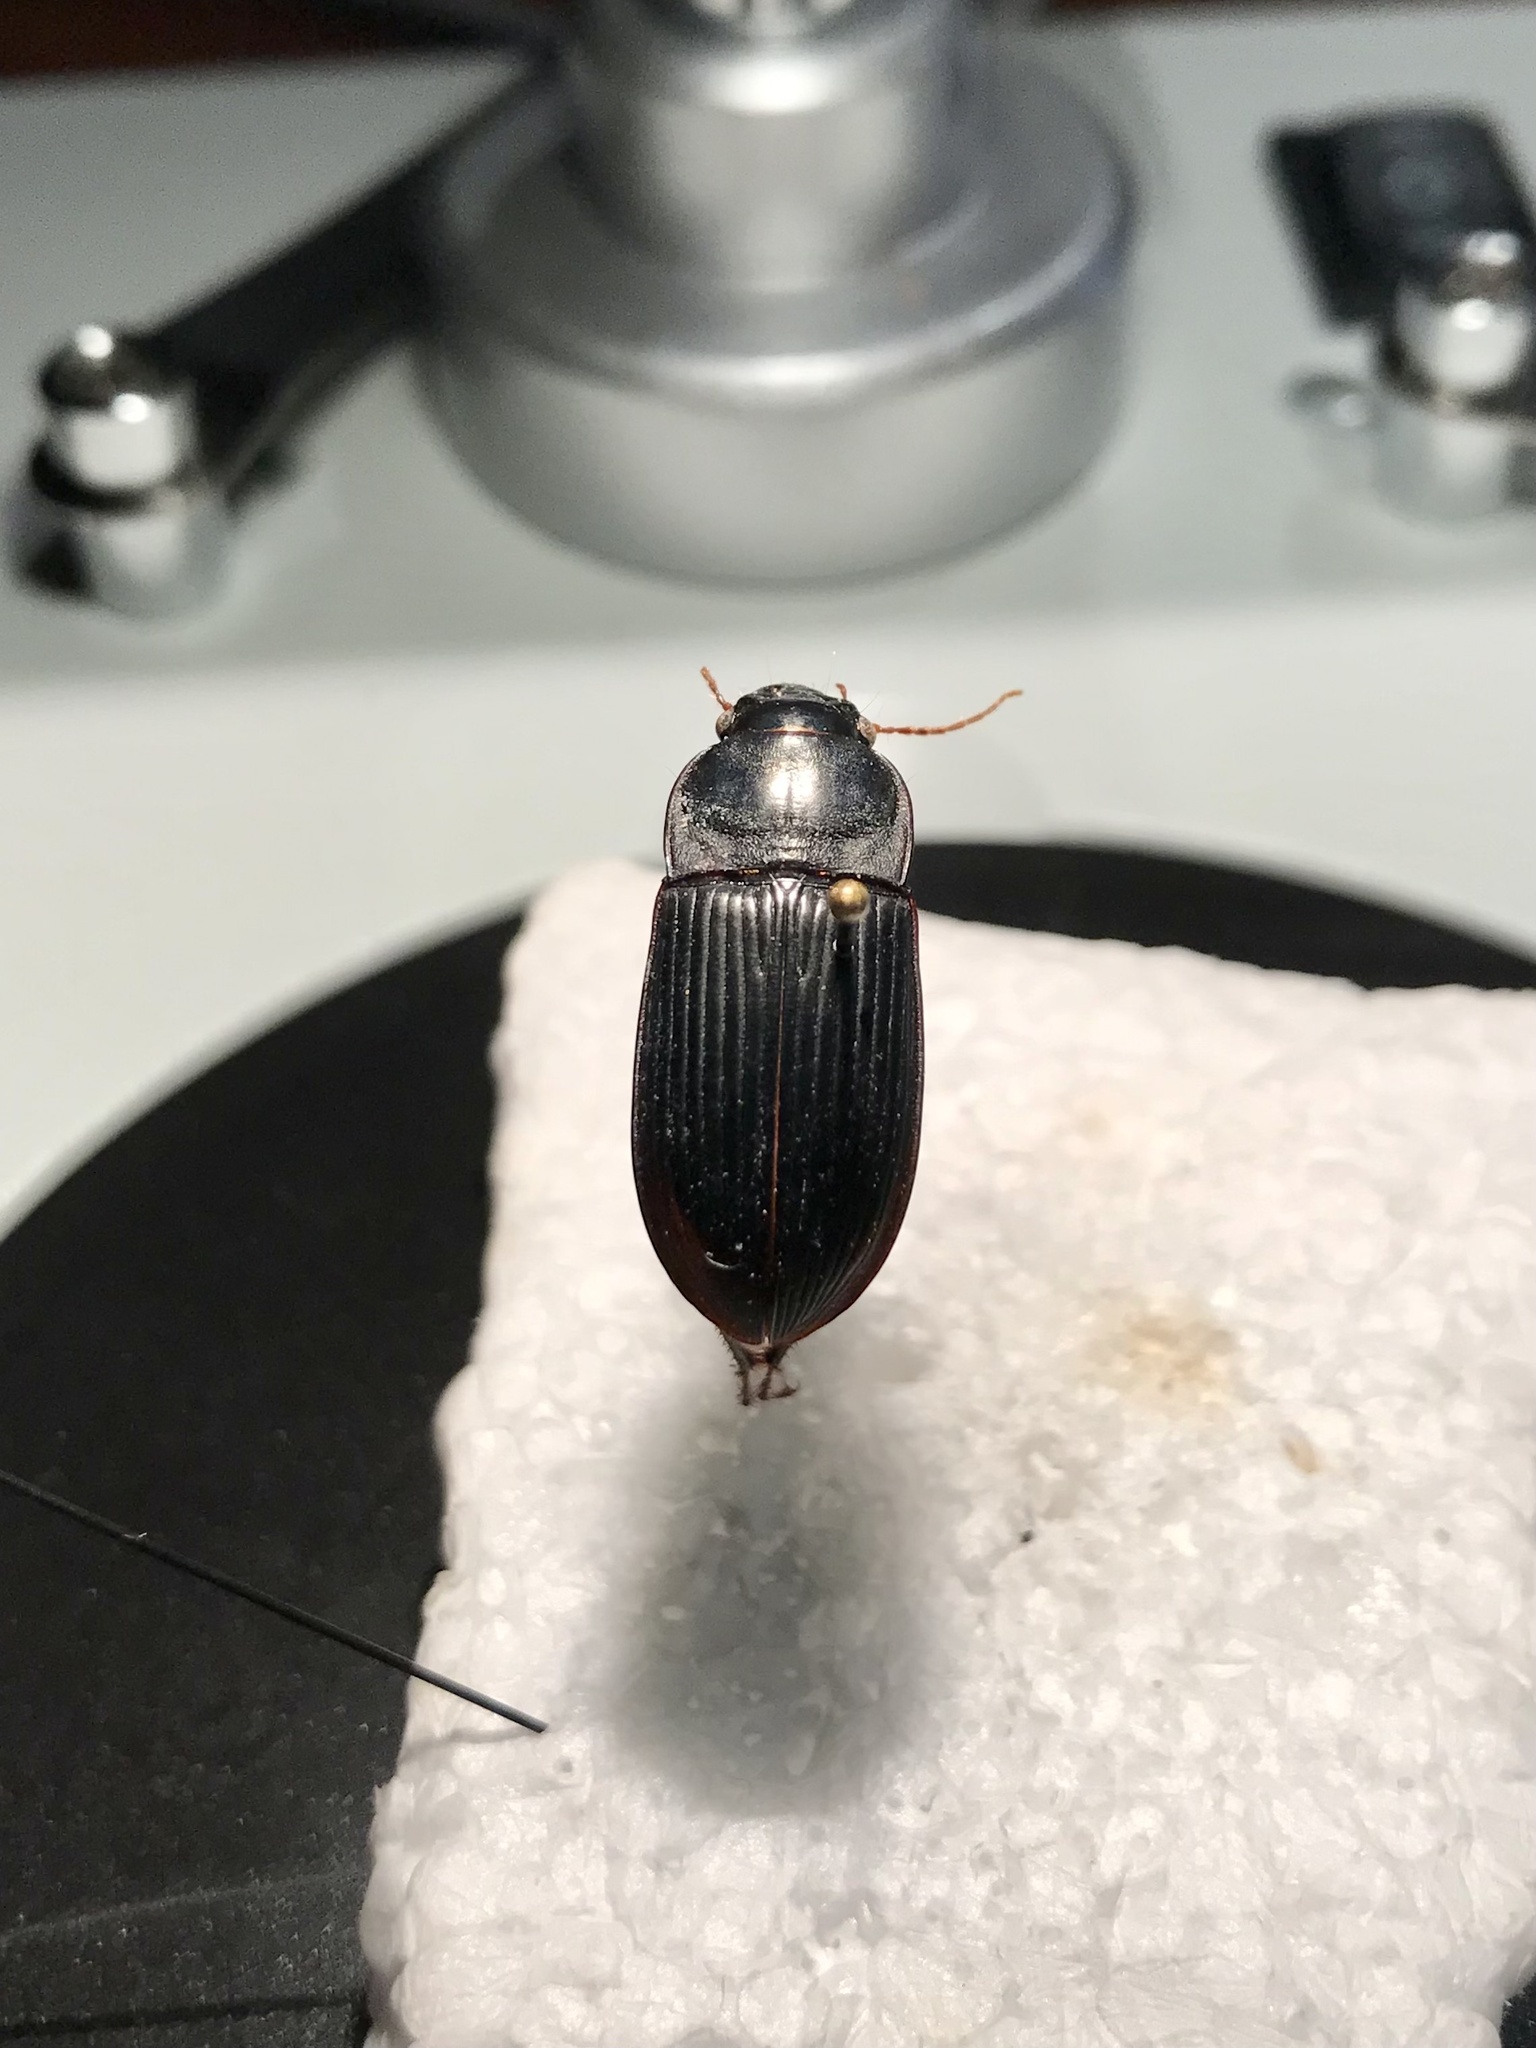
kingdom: Animalia
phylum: Arthropoda
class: Insecta
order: Coleoptera
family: Carabidae
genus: Harpalus
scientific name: Harpalus caliginosus
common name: Murky ground beetle
